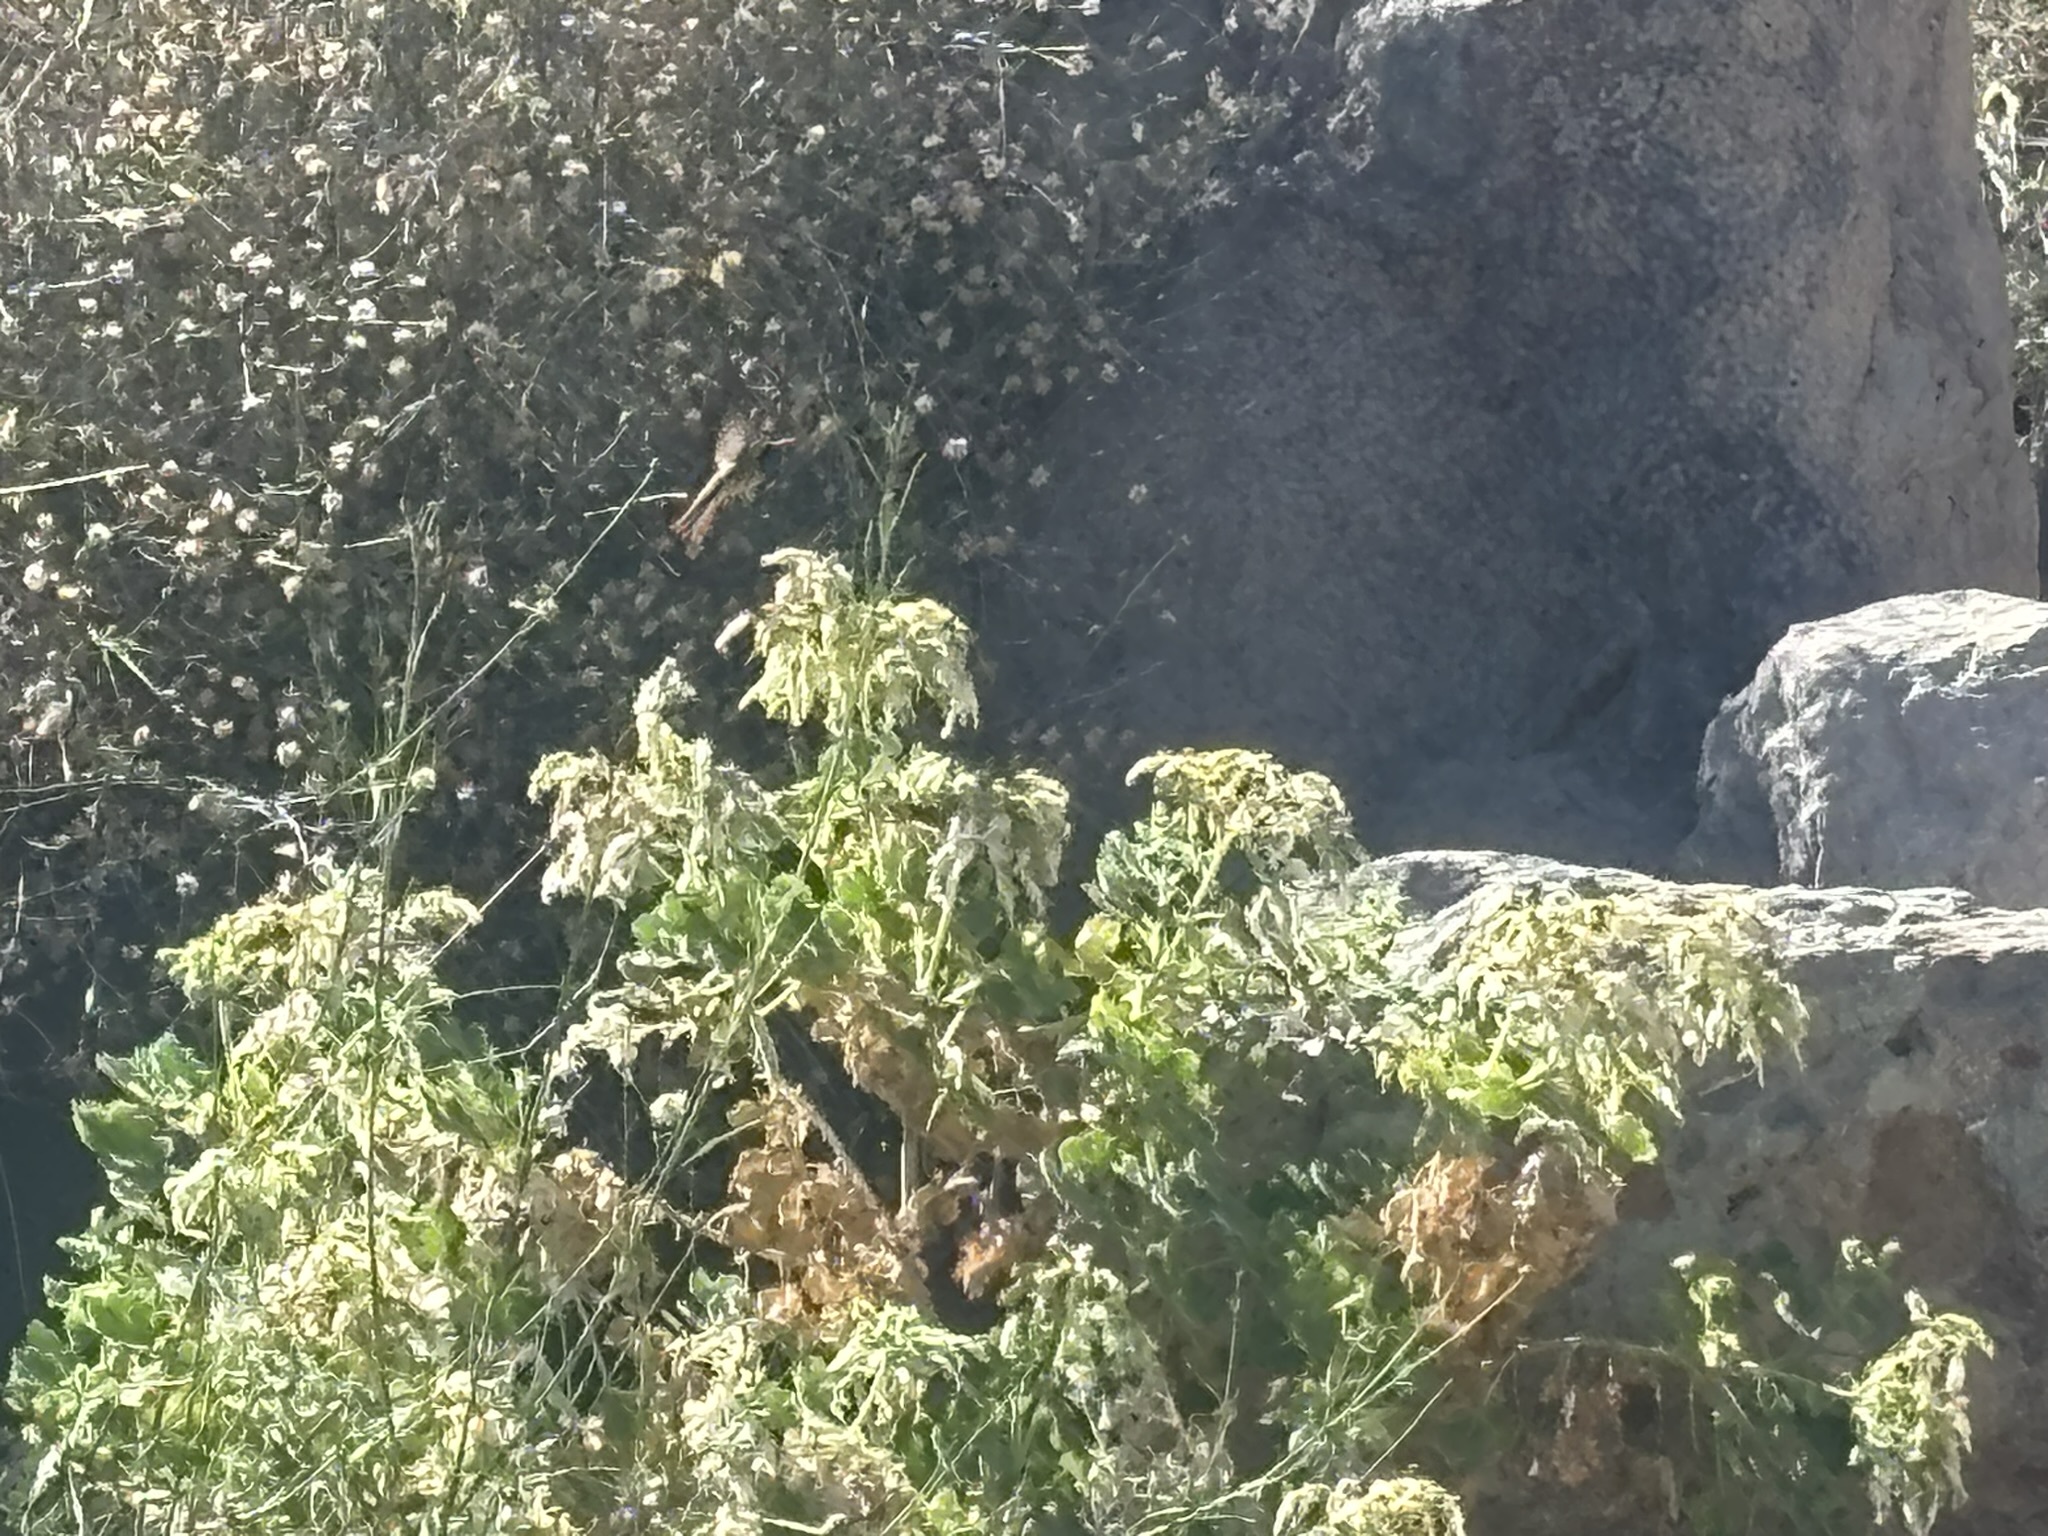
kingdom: Plantae
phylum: Tracheophyta
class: Magnoliopsida
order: Cornales
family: Loasaceae
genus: Eucnide
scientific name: Eucnide cordata
